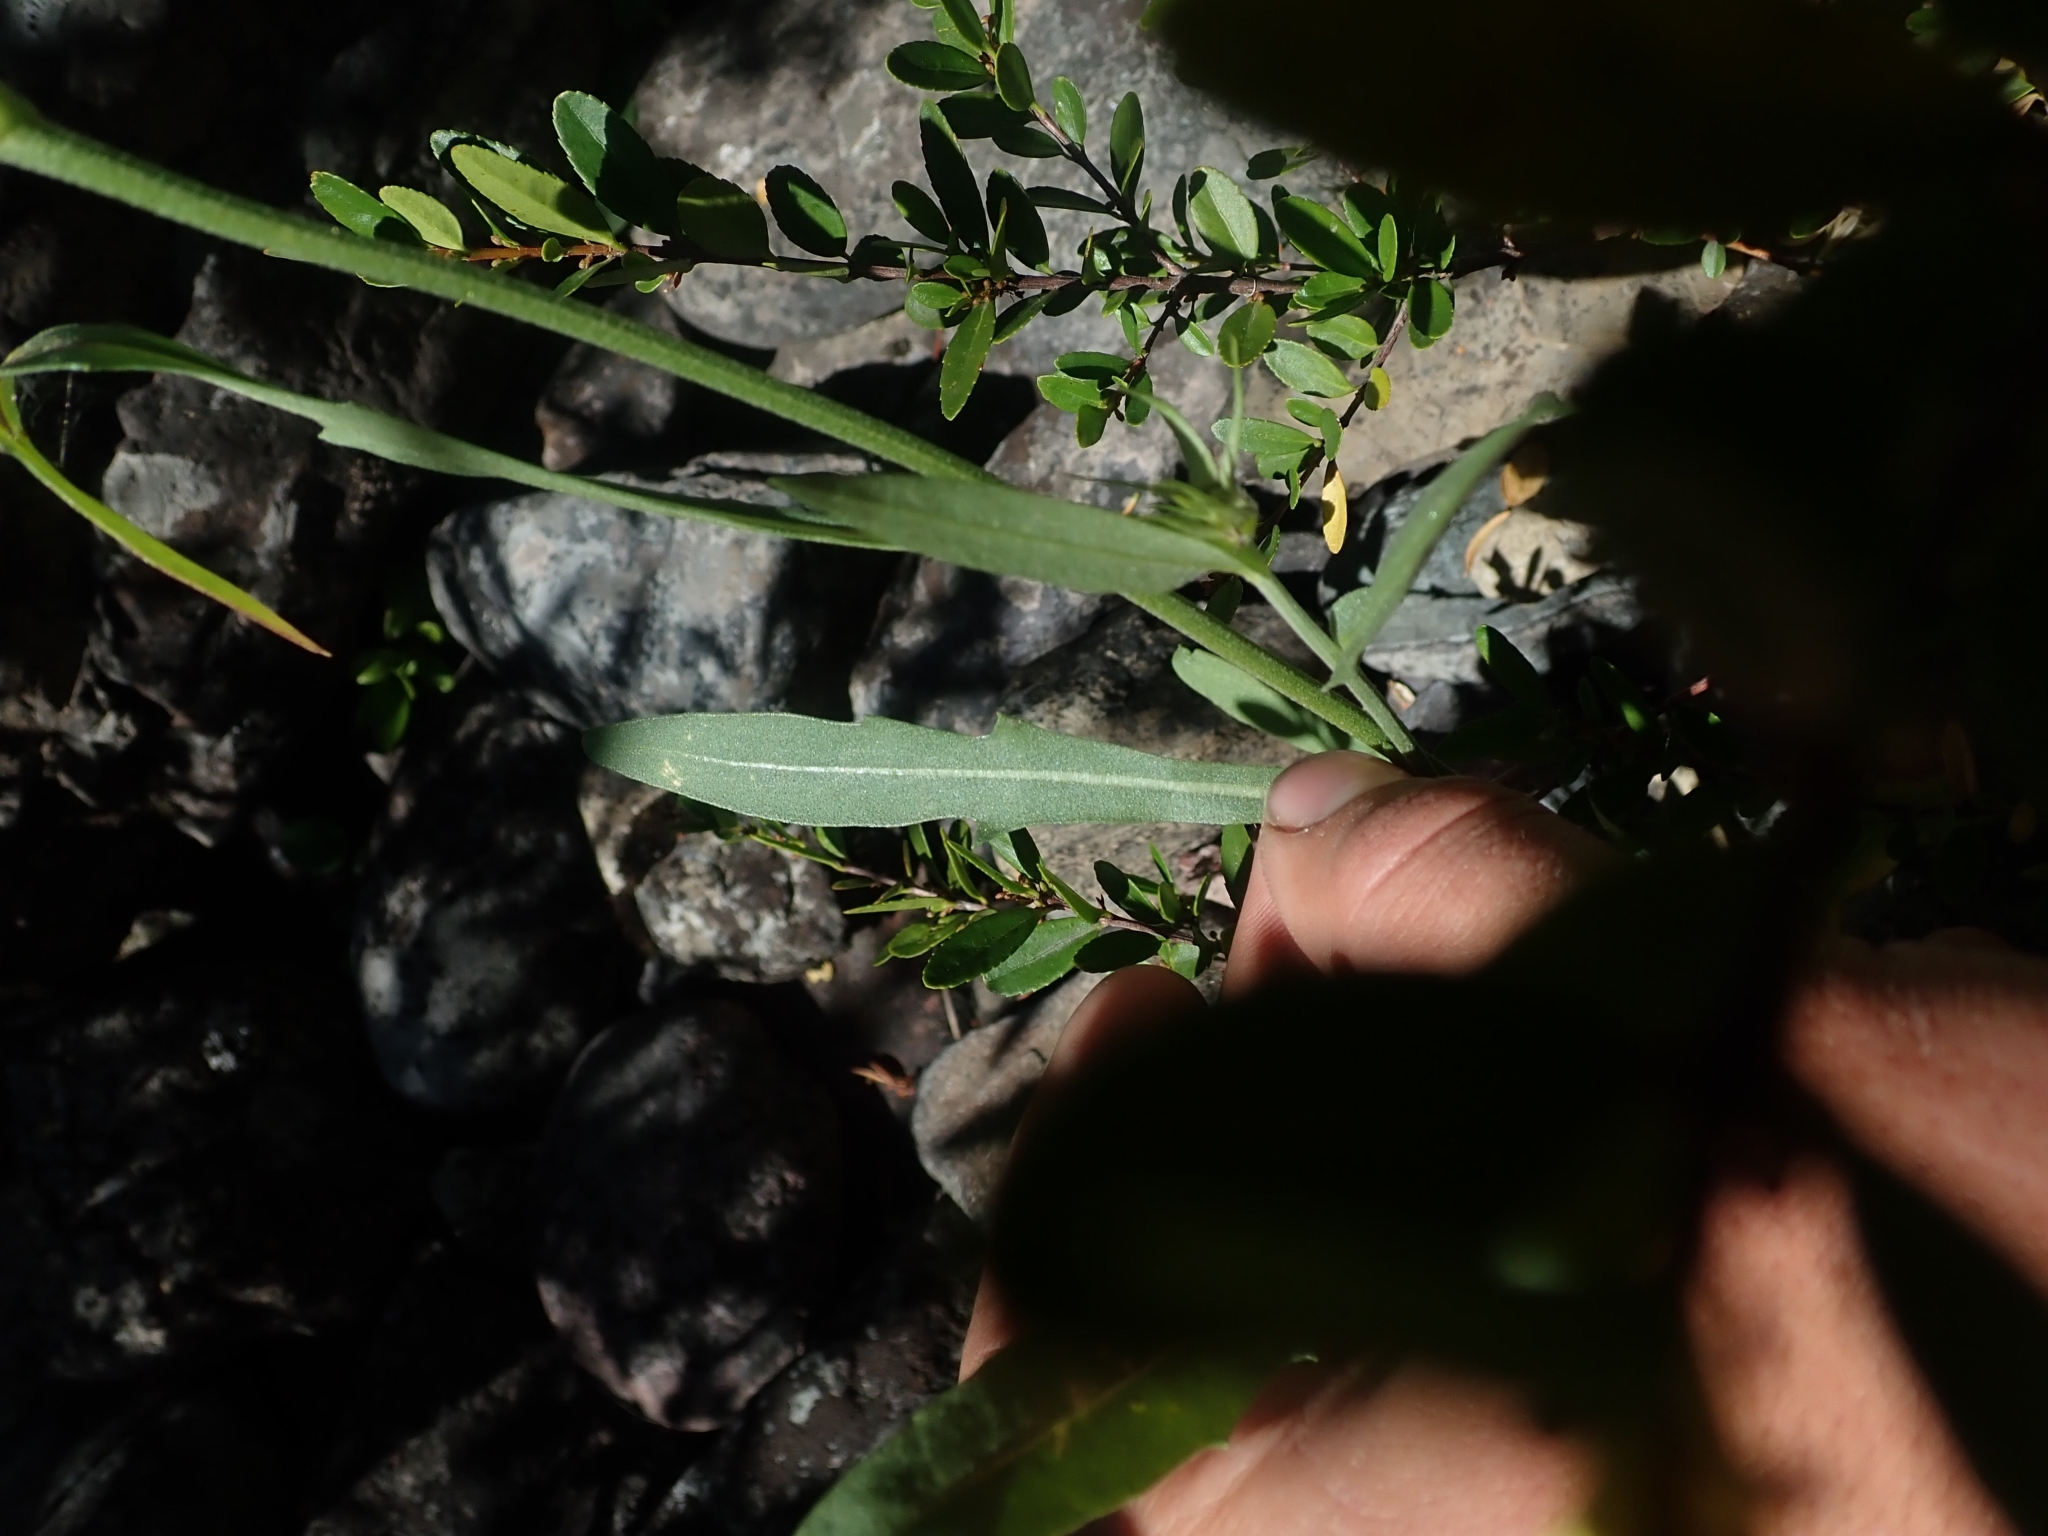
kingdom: Plantae
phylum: Tracheophyta
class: Magnoliopsida
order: Asterales
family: Asteraceae
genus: Gaillardia
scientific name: Gaillardia aristata
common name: Blanket-flower
